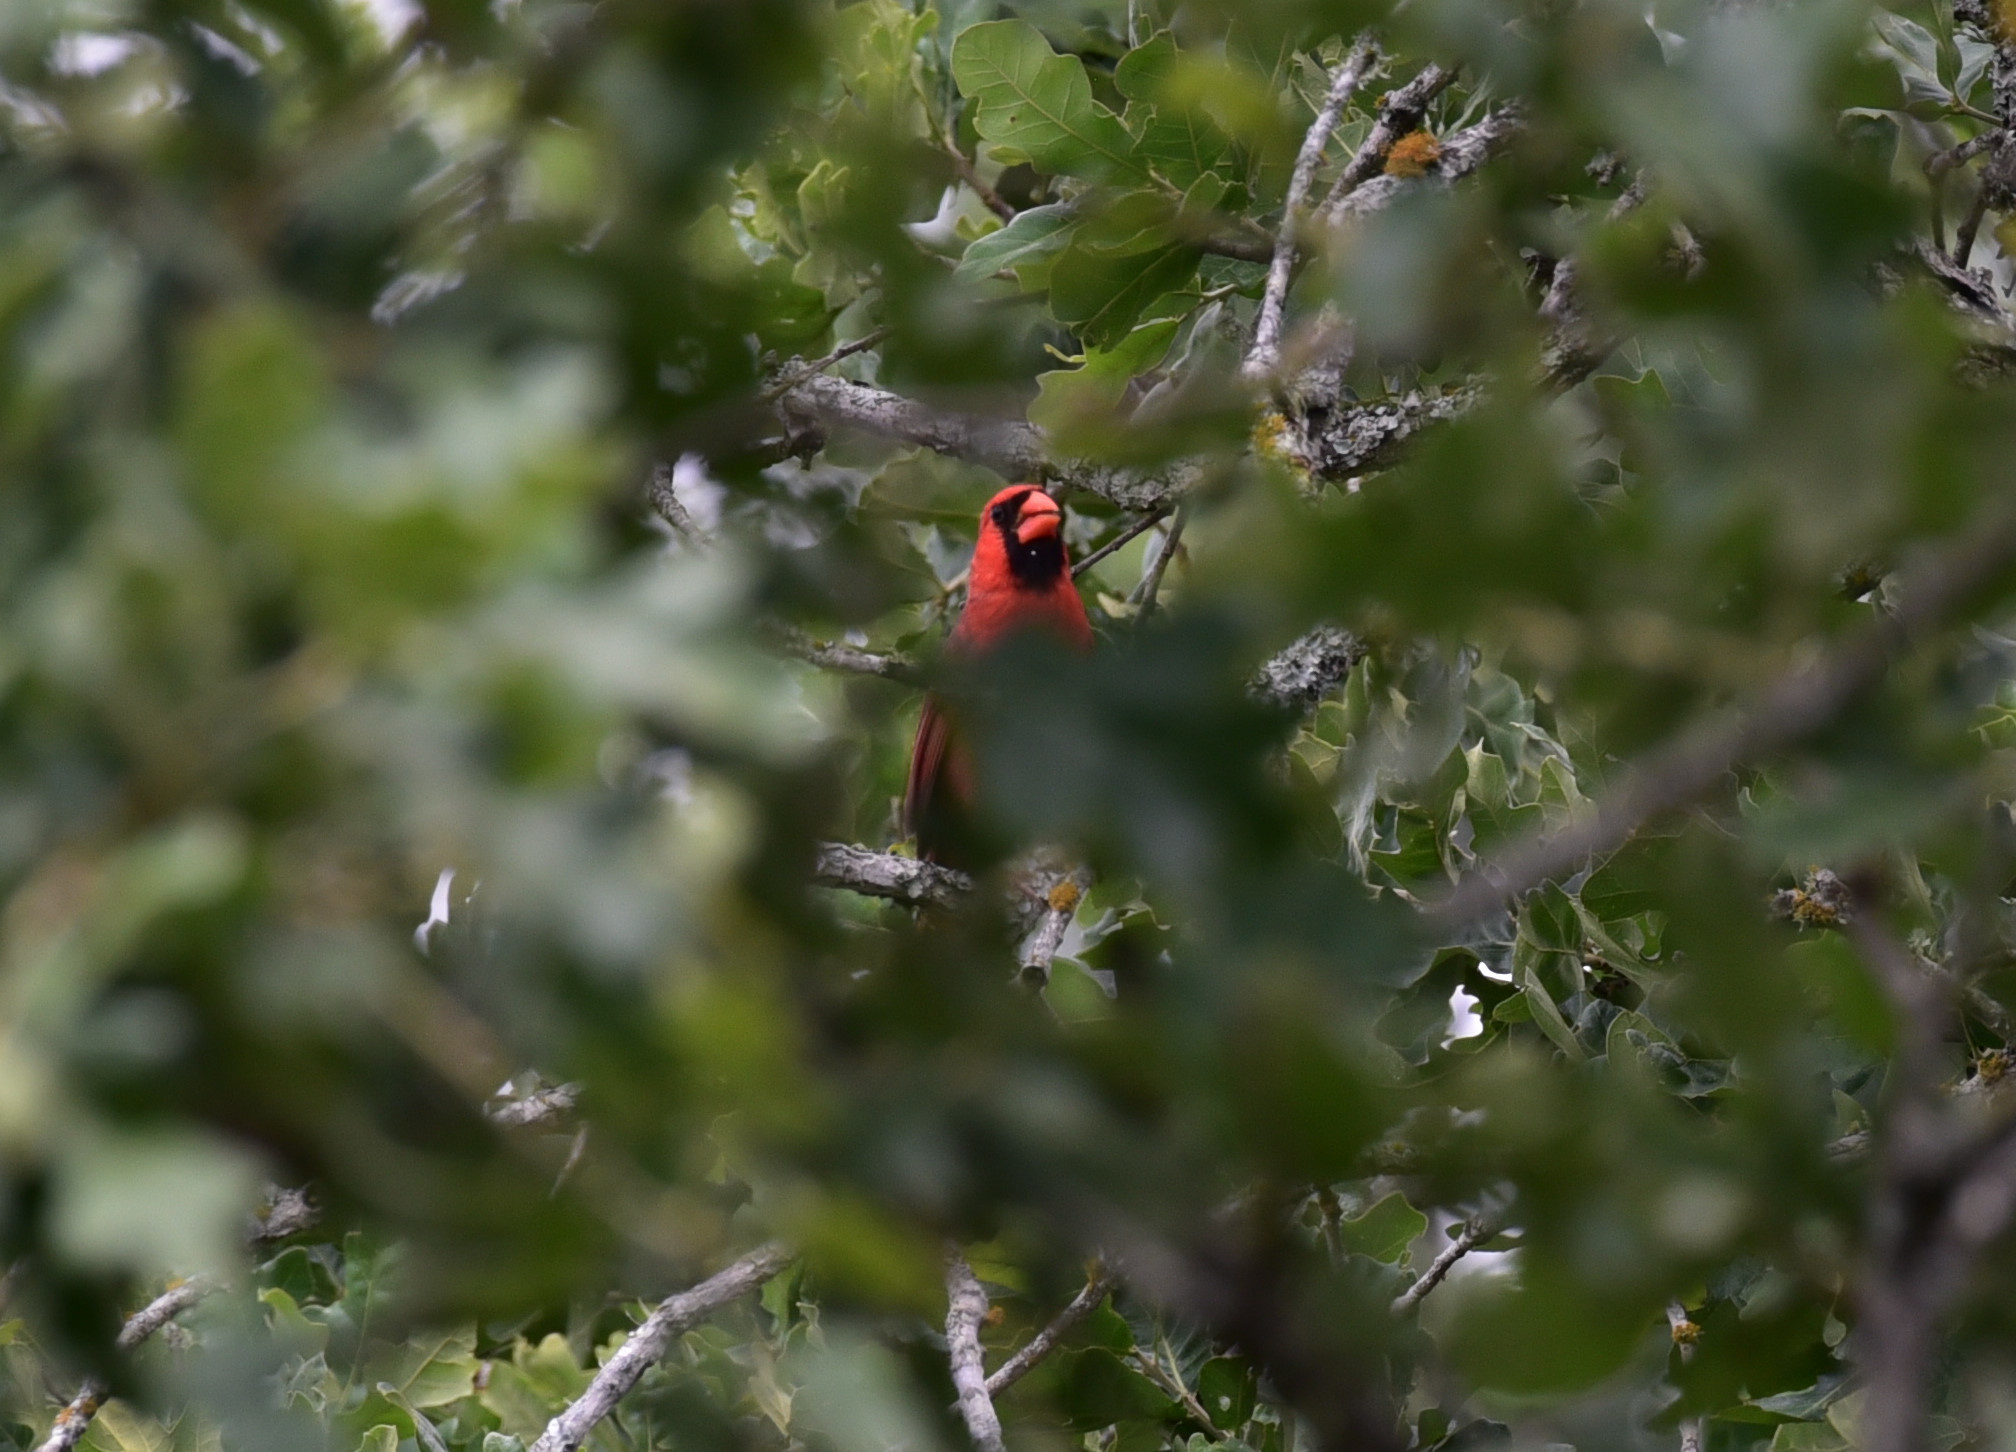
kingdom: Animalia
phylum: Chordata
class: Aves
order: Passeriformes
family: Cardinalidae
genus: Cardinalis
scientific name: Cardinalis cardinalis
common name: Northern cardinal
